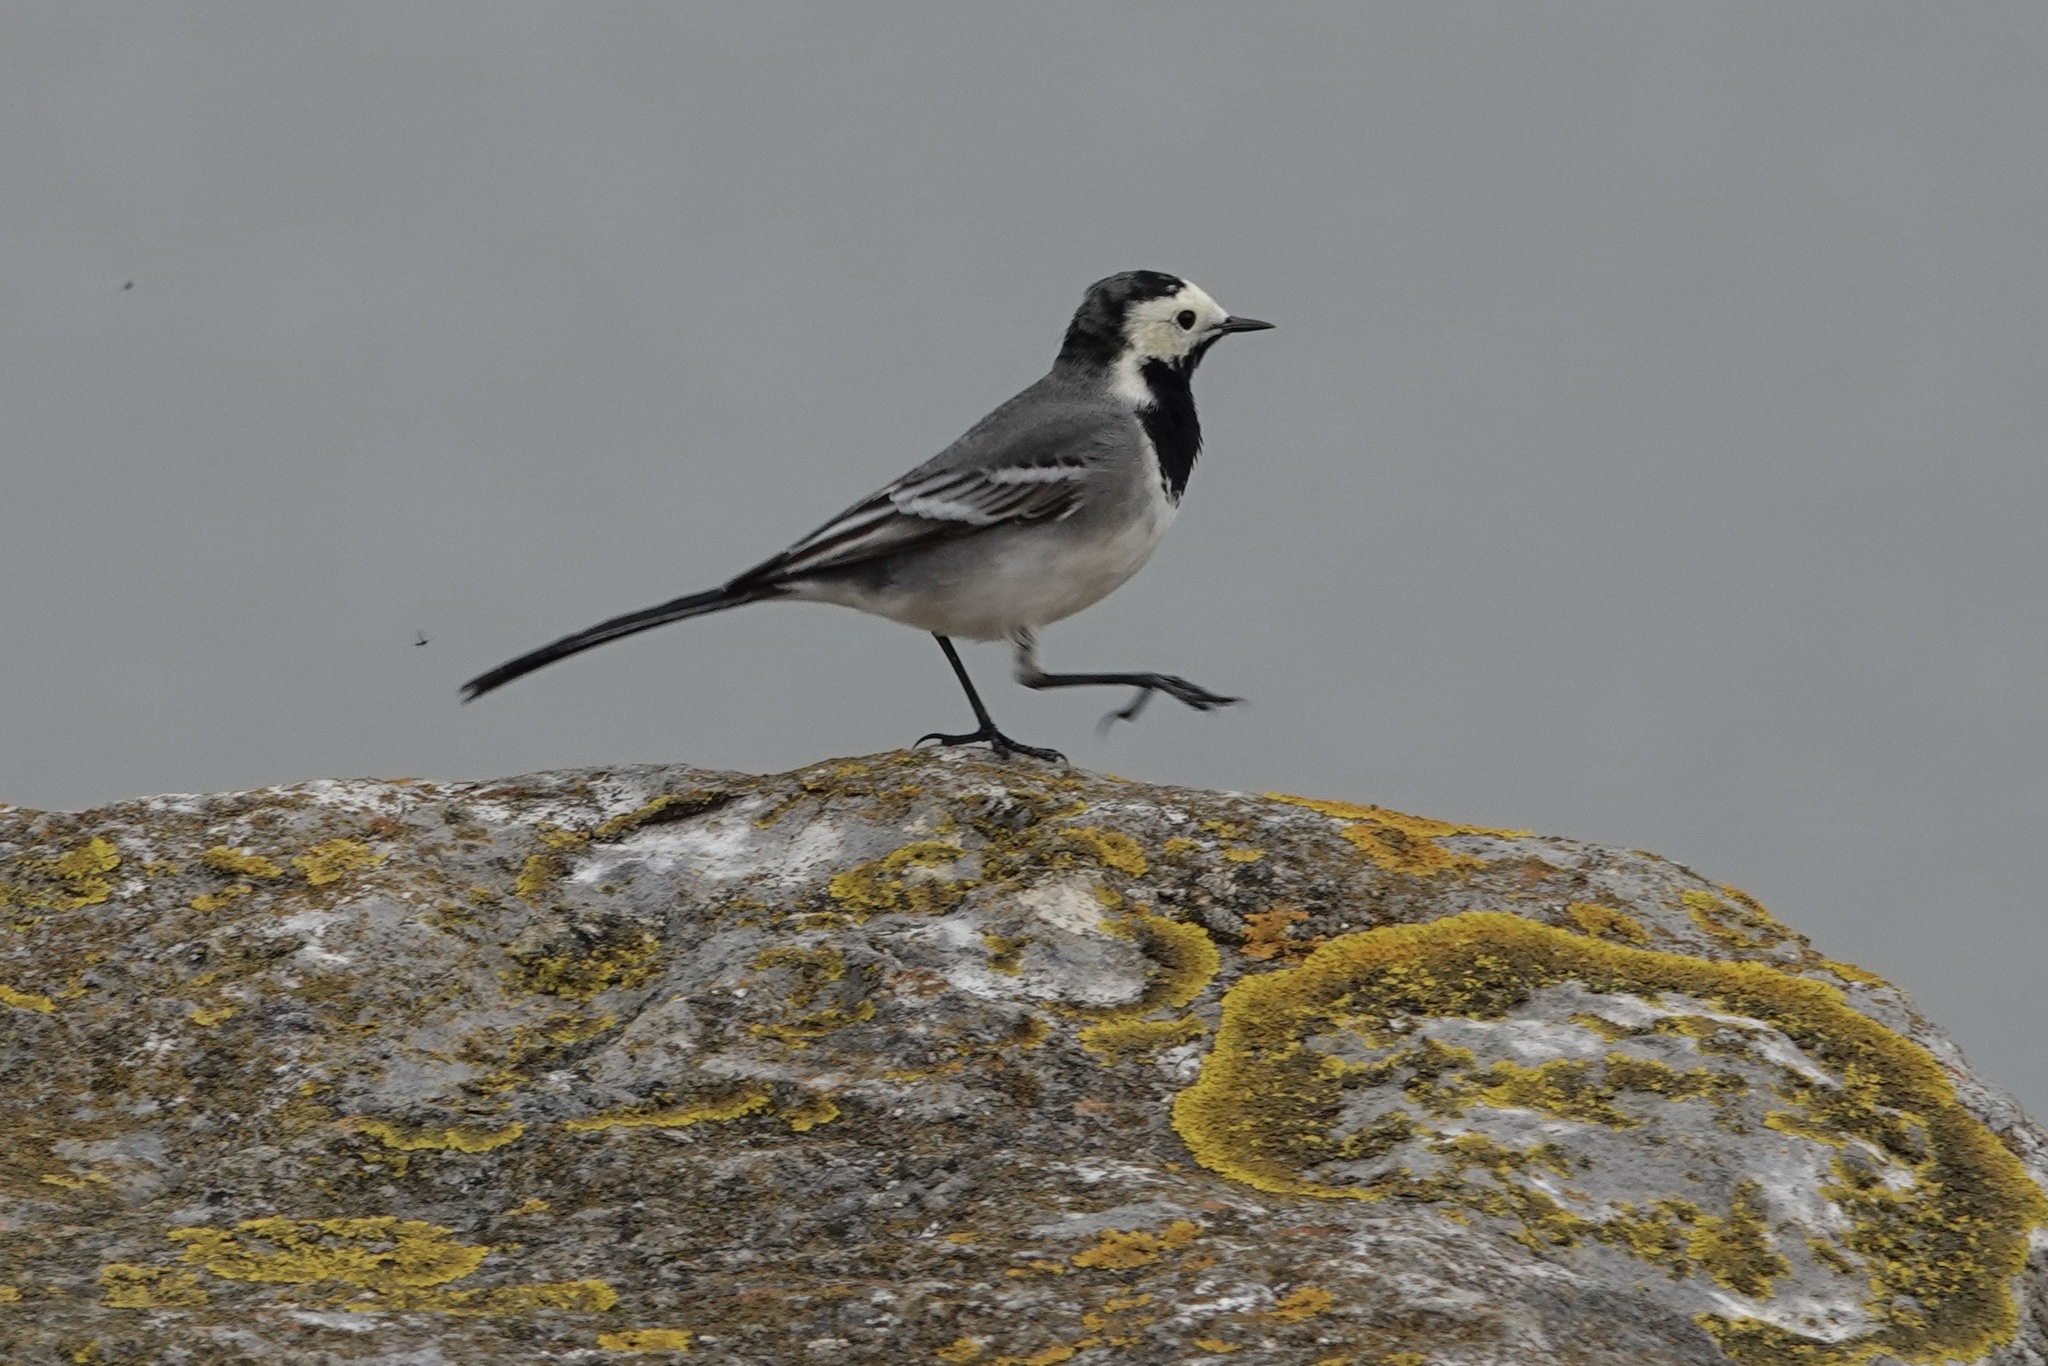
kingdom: Animalia
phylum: Chordata
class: Aves
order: Passeriformes
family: Motacillidae
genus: Motacilla
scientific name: Motacilla alba
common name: White wagtail
